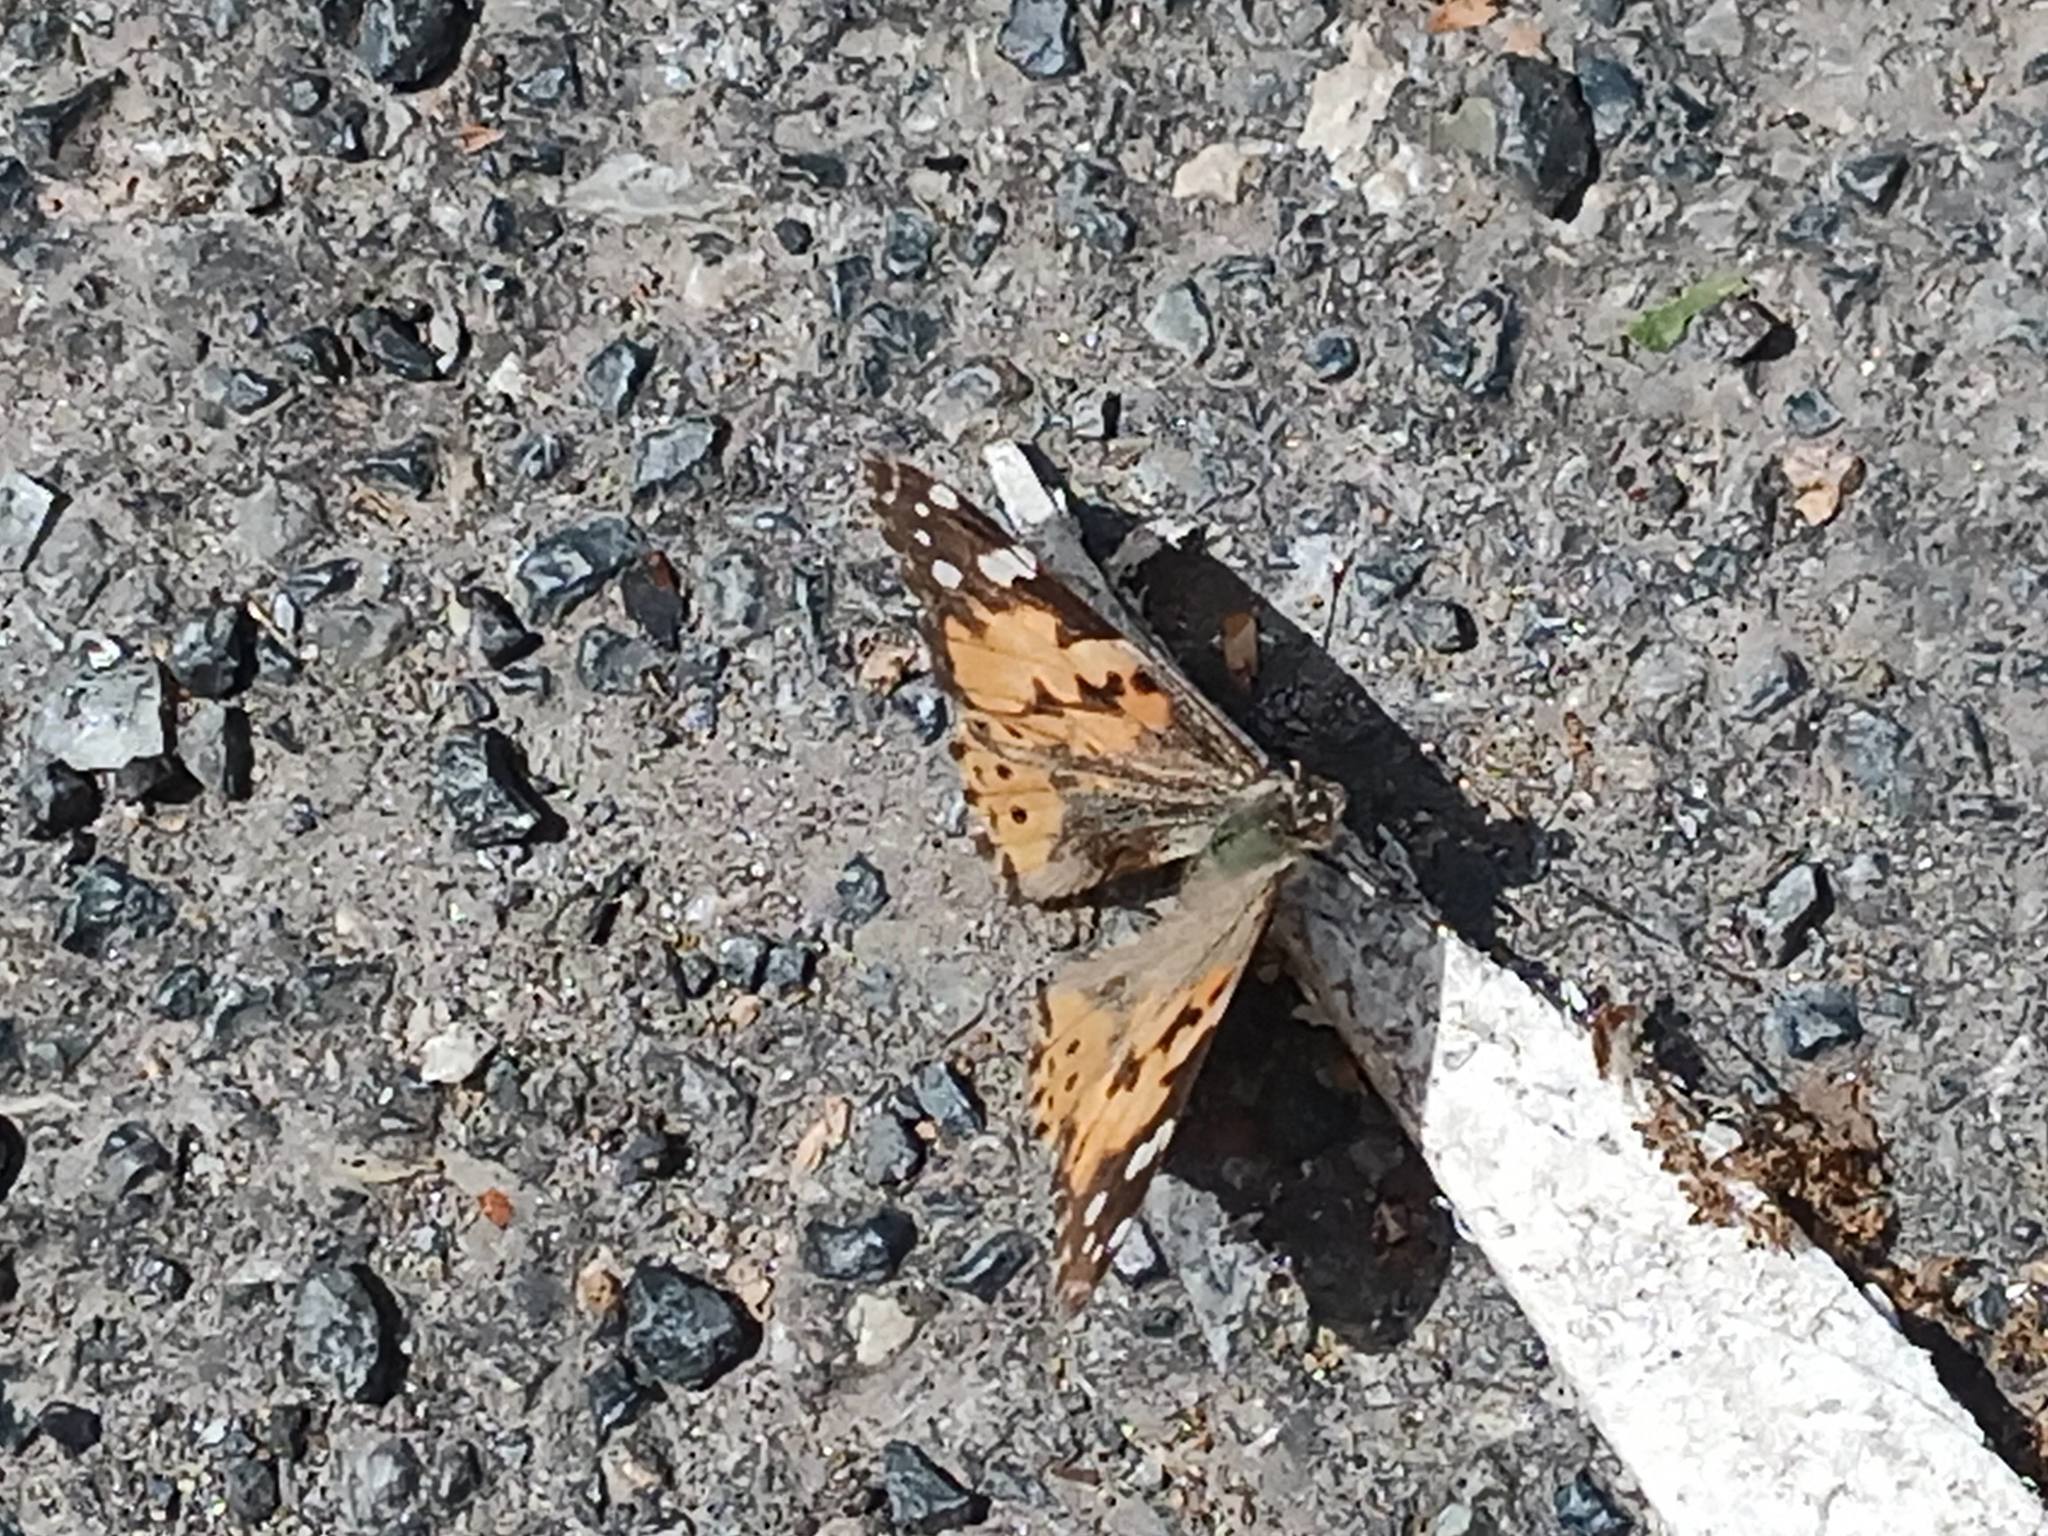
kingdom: Animalia
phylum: Arthropoda
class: Insecta
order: Lepidoptera
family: Nymphalidae
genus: Vanessa
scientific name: Vanessa cardui
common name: Painted lady
